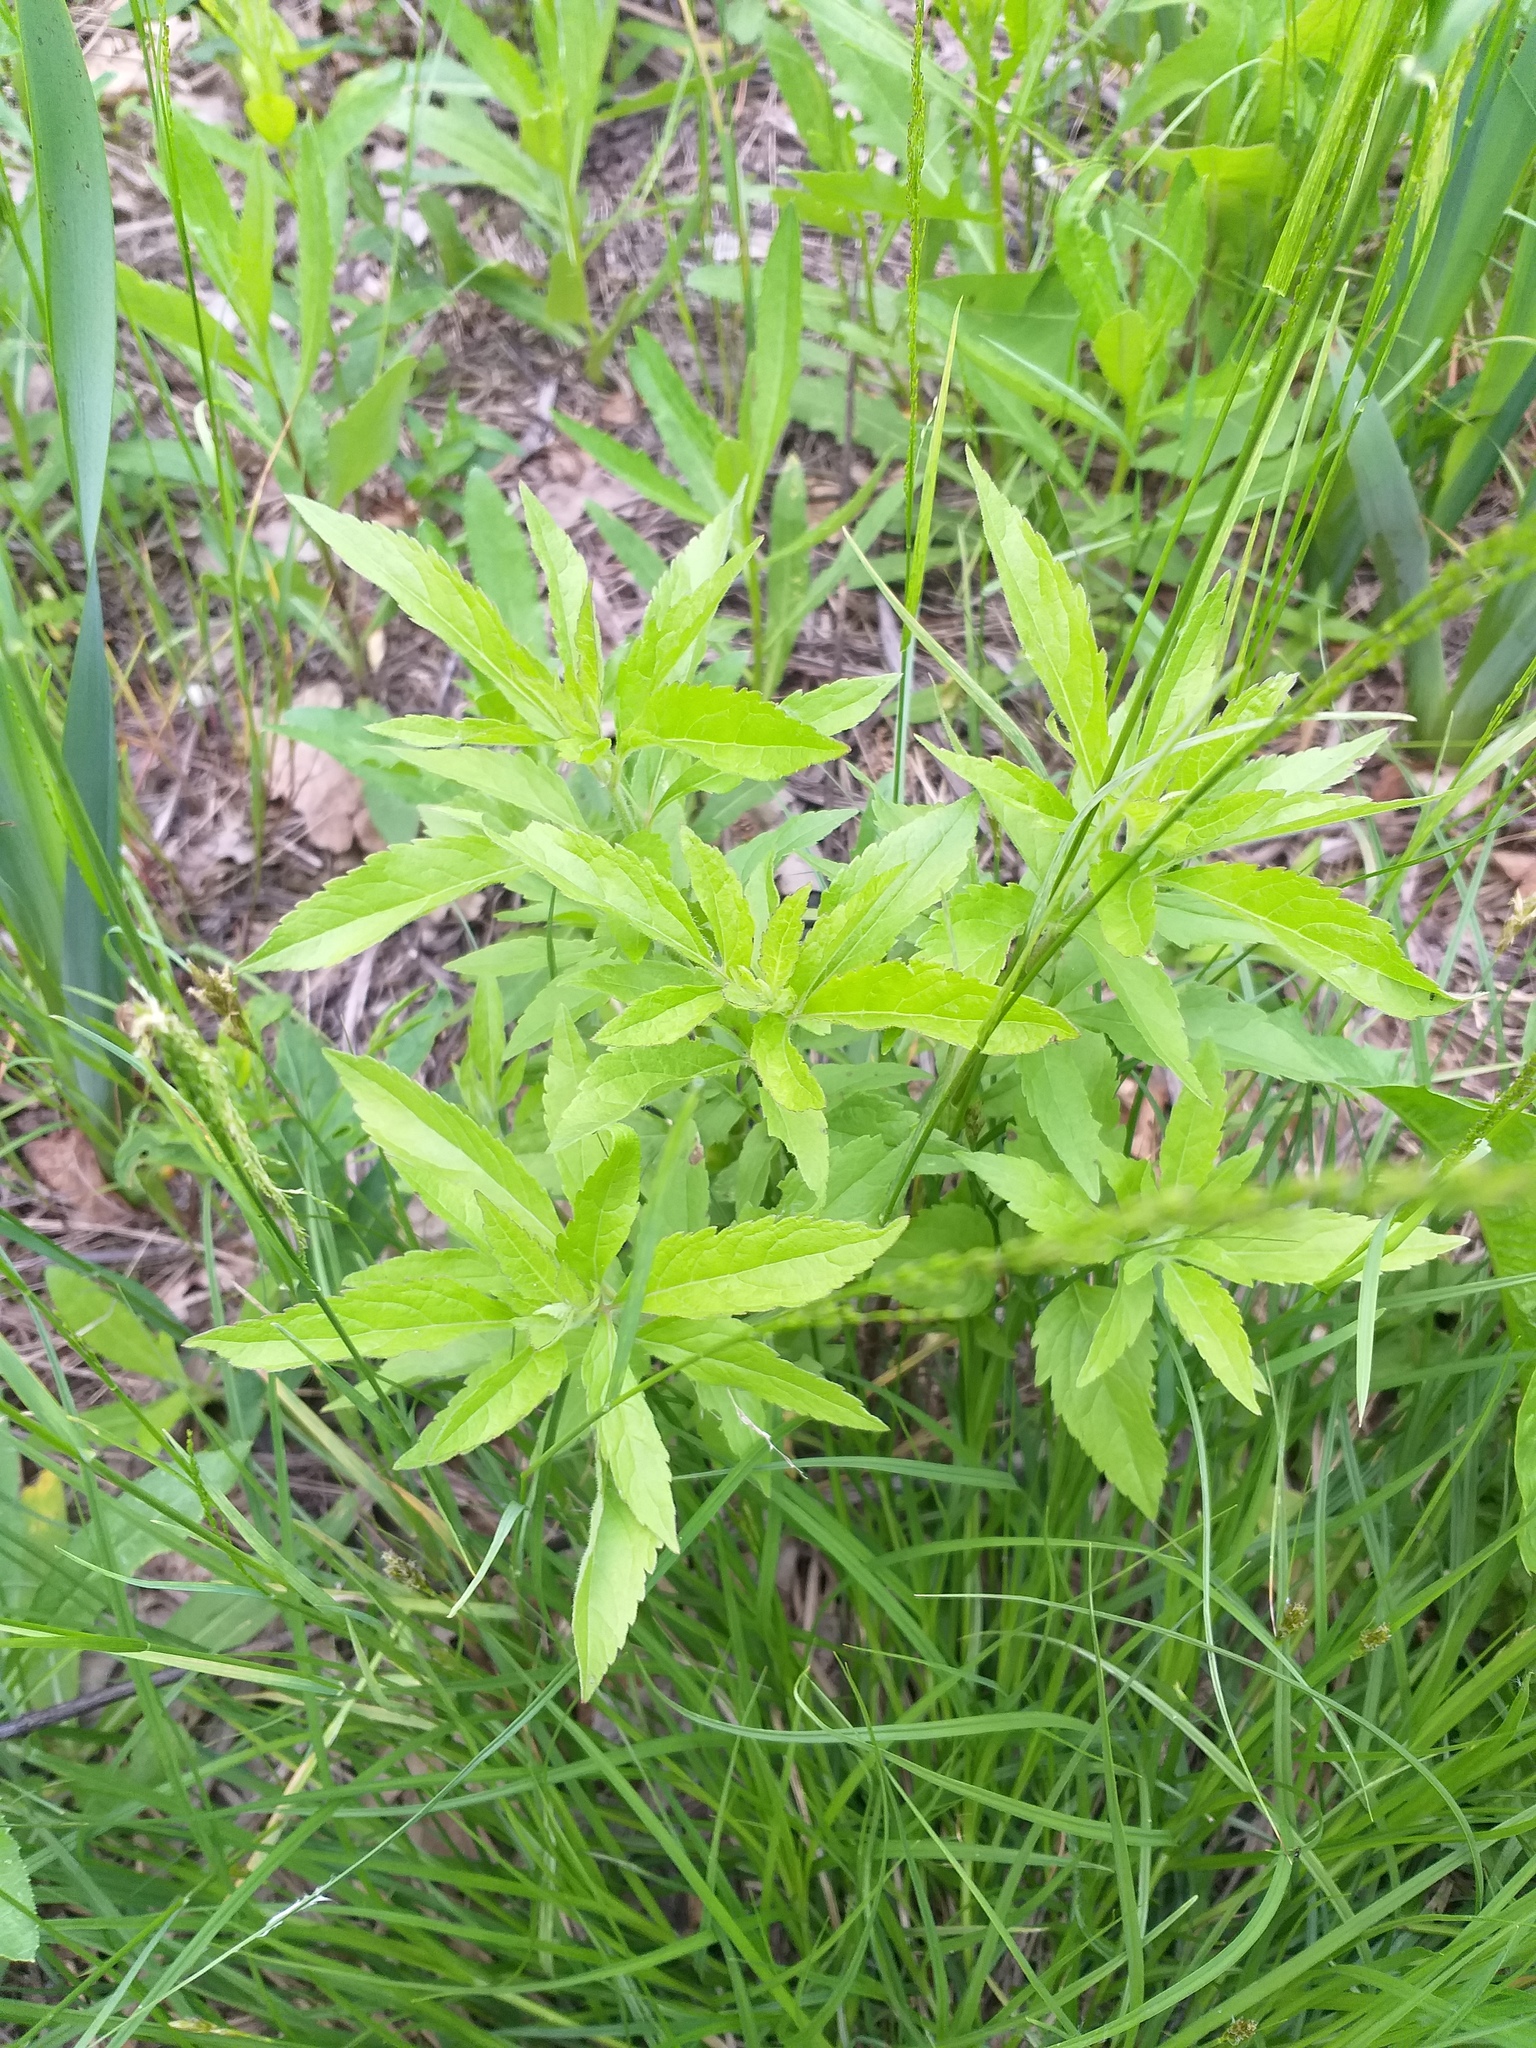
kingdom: Plantae
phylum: Tracheophyta
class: Magnoliopsida
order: Asterales
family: Asteraceae
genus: Eupatorium
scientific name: Eupatorium cannabinum
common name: Hemp-agrimony
